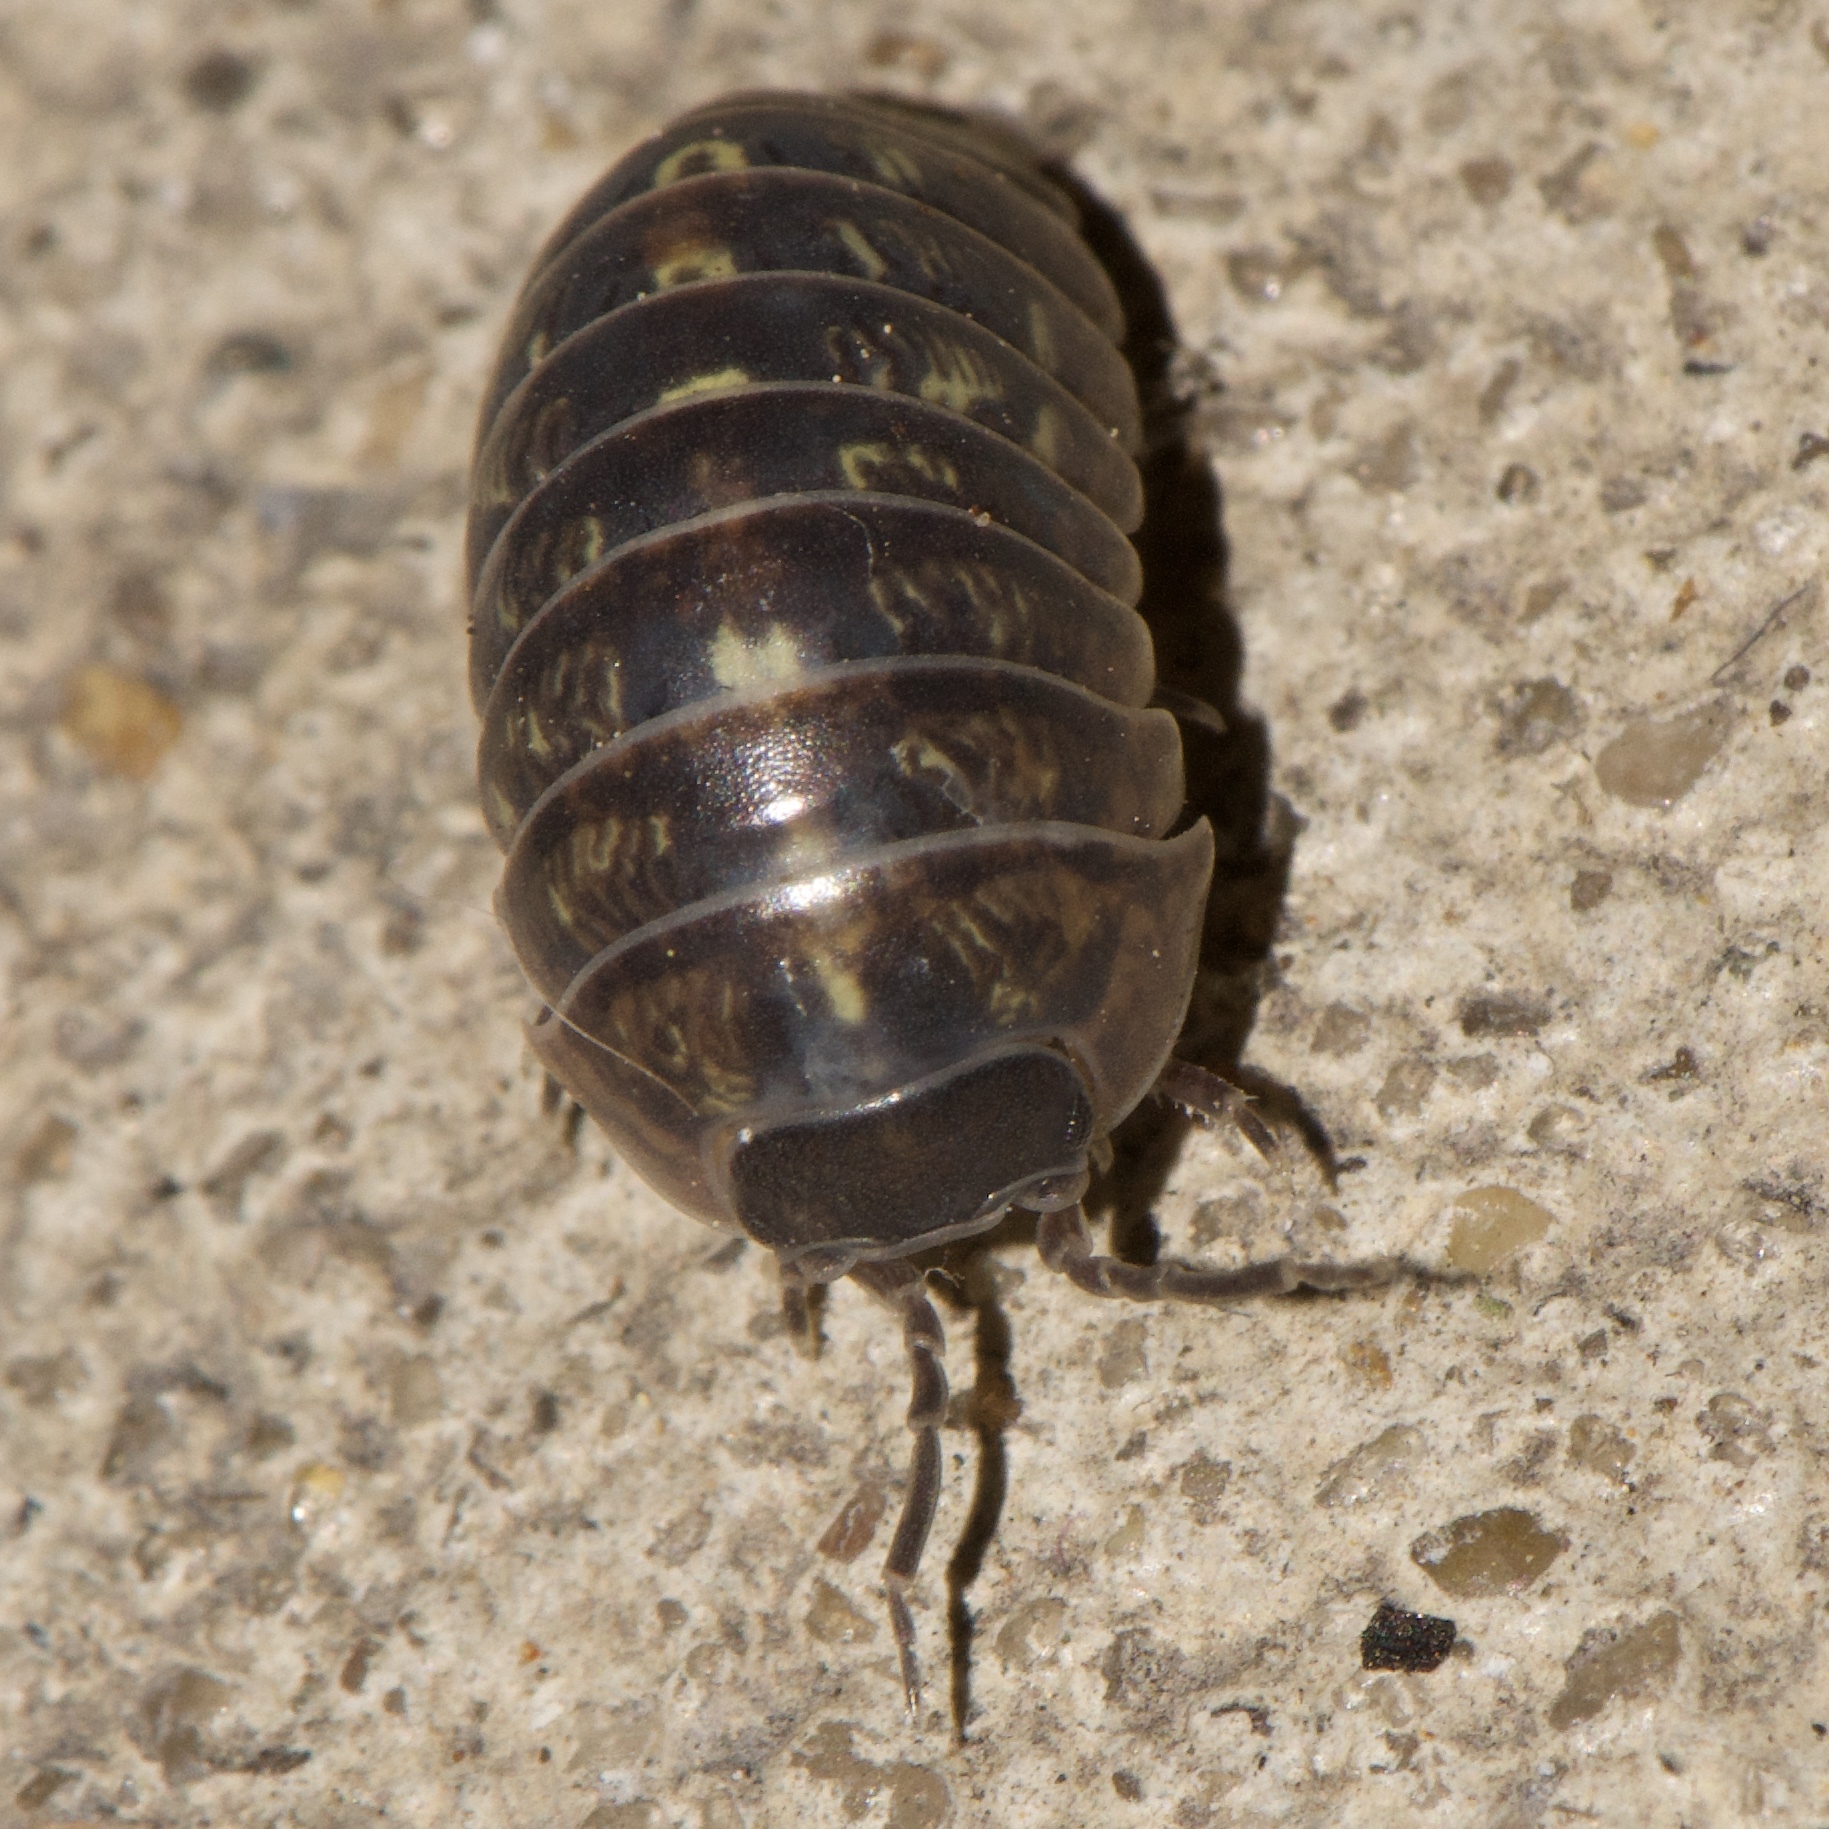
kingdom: Animalia
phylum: Arthropoda
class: Malacostraca
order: Isopoda
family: Armadillidiidae
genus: Armadillidium
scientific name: Armadillidium vulgare
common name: Common pill woodlouse
